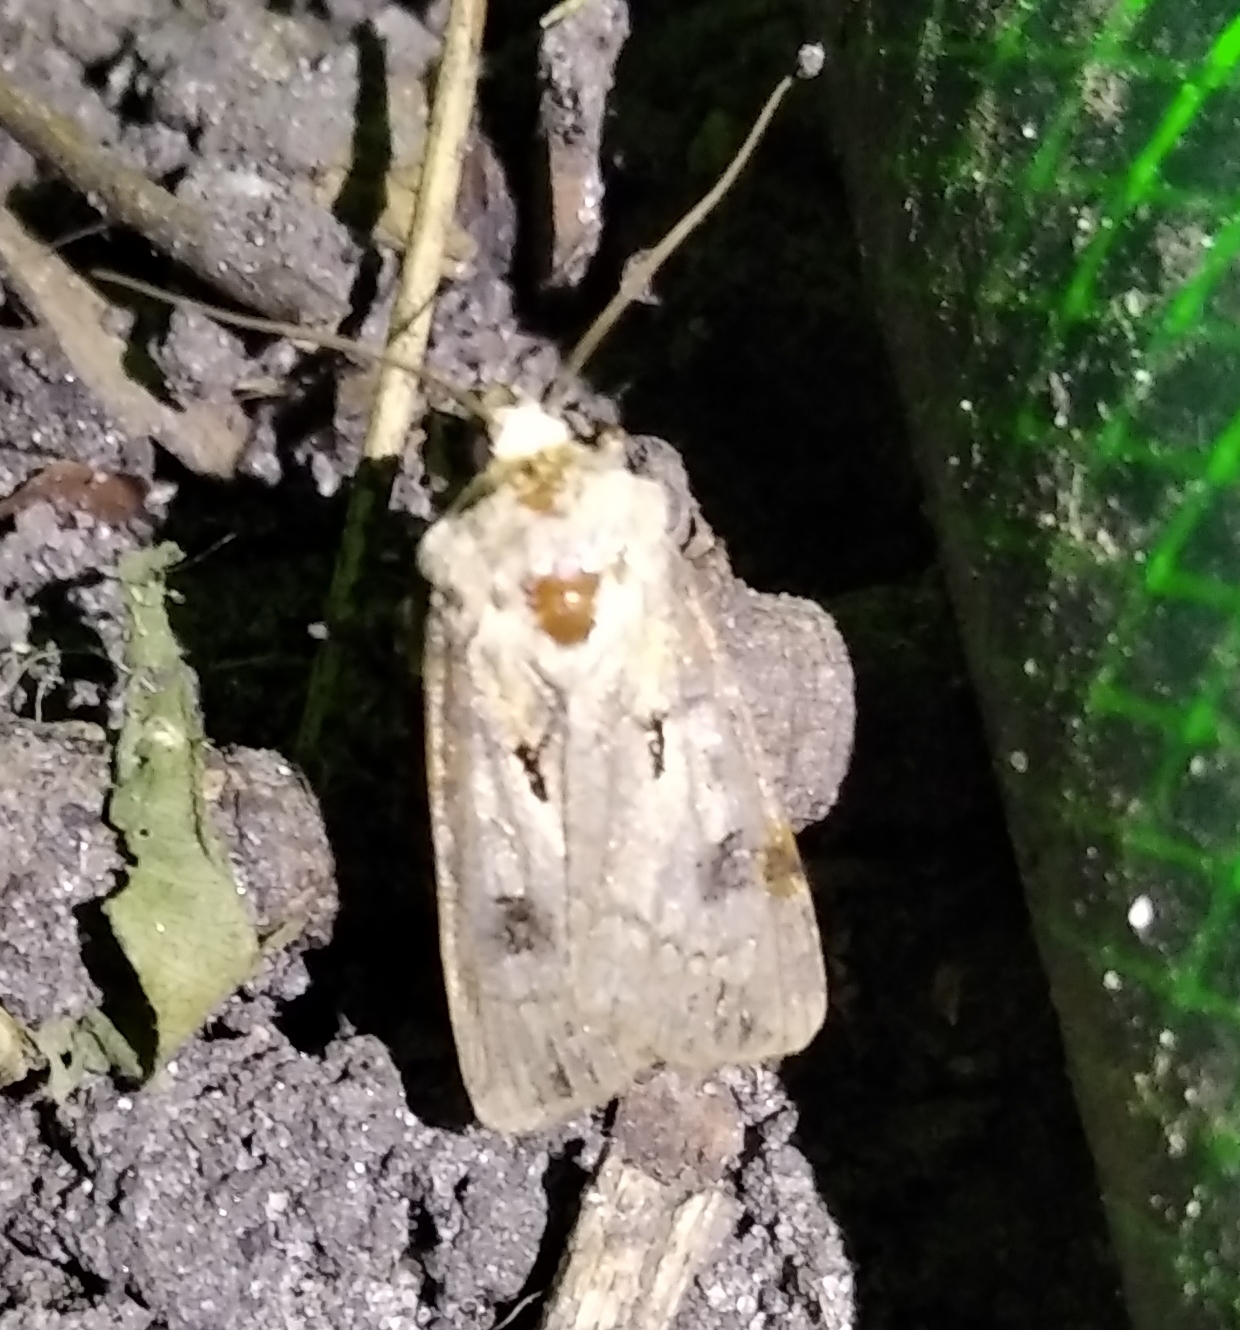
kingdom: Animalia
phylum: Arthropoda
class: Insecta
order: Lepidoptera
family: Noctuidae
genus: Agrotis
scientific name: Agrotis exclamationis
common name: Heart and dart
